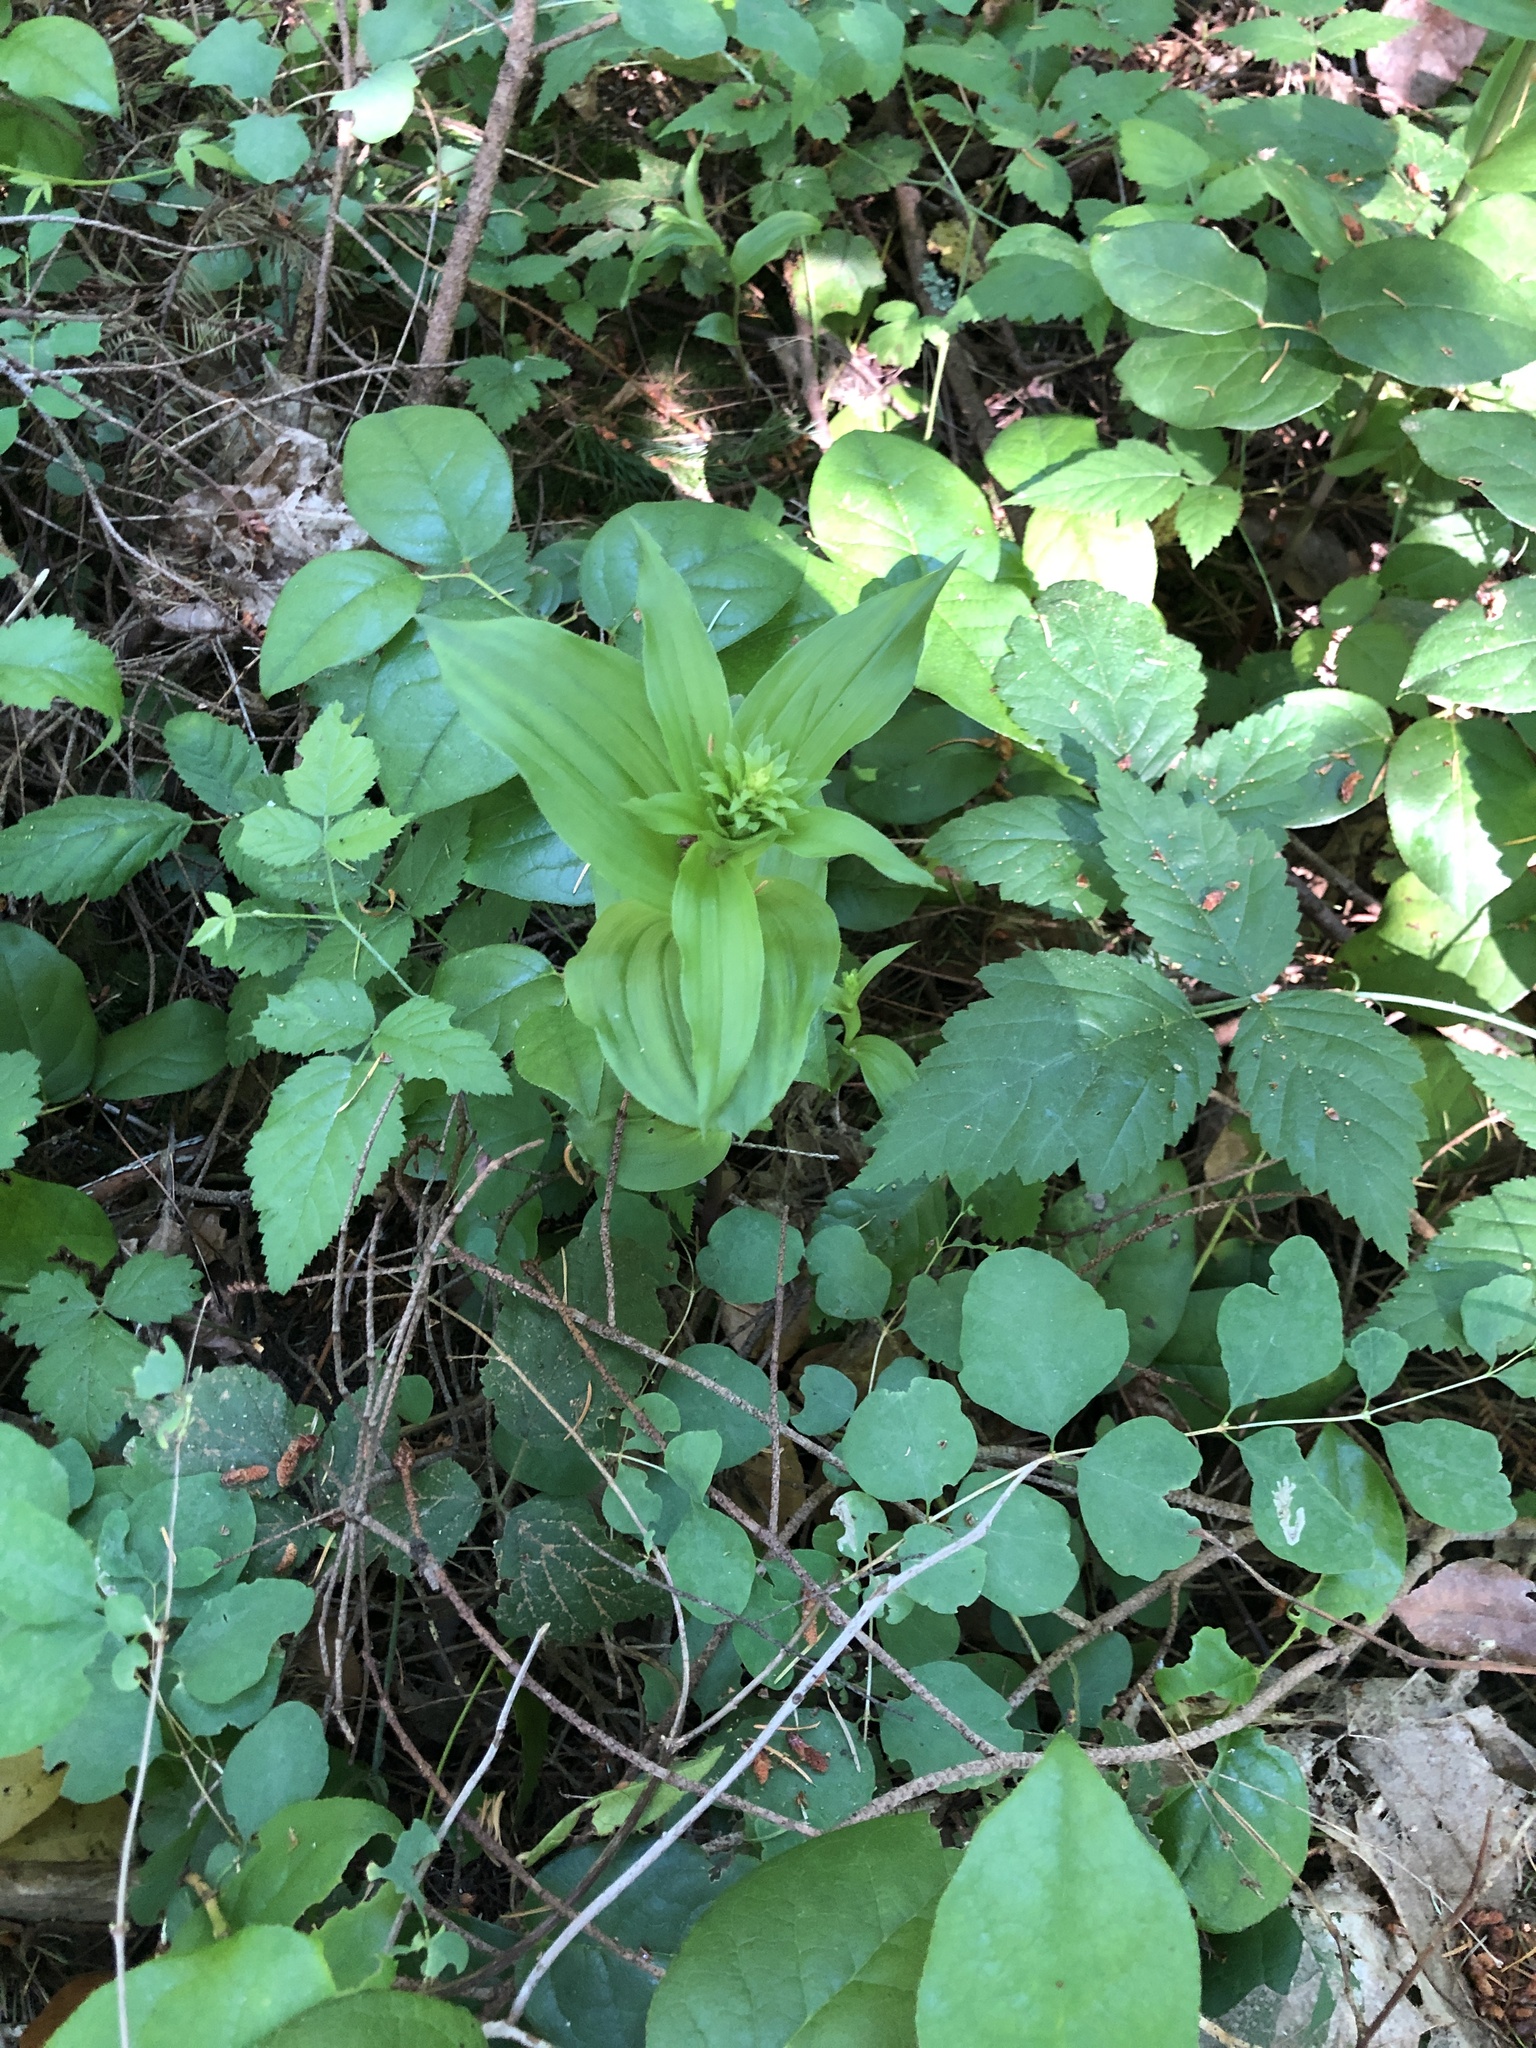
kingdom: Plantae
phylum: Tracheophyta
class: Liliopsida
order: Asparagales
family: Orchidaceae
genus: Epipactis
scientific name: Epipactis helleborine
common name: Broad-leaved helleborine
